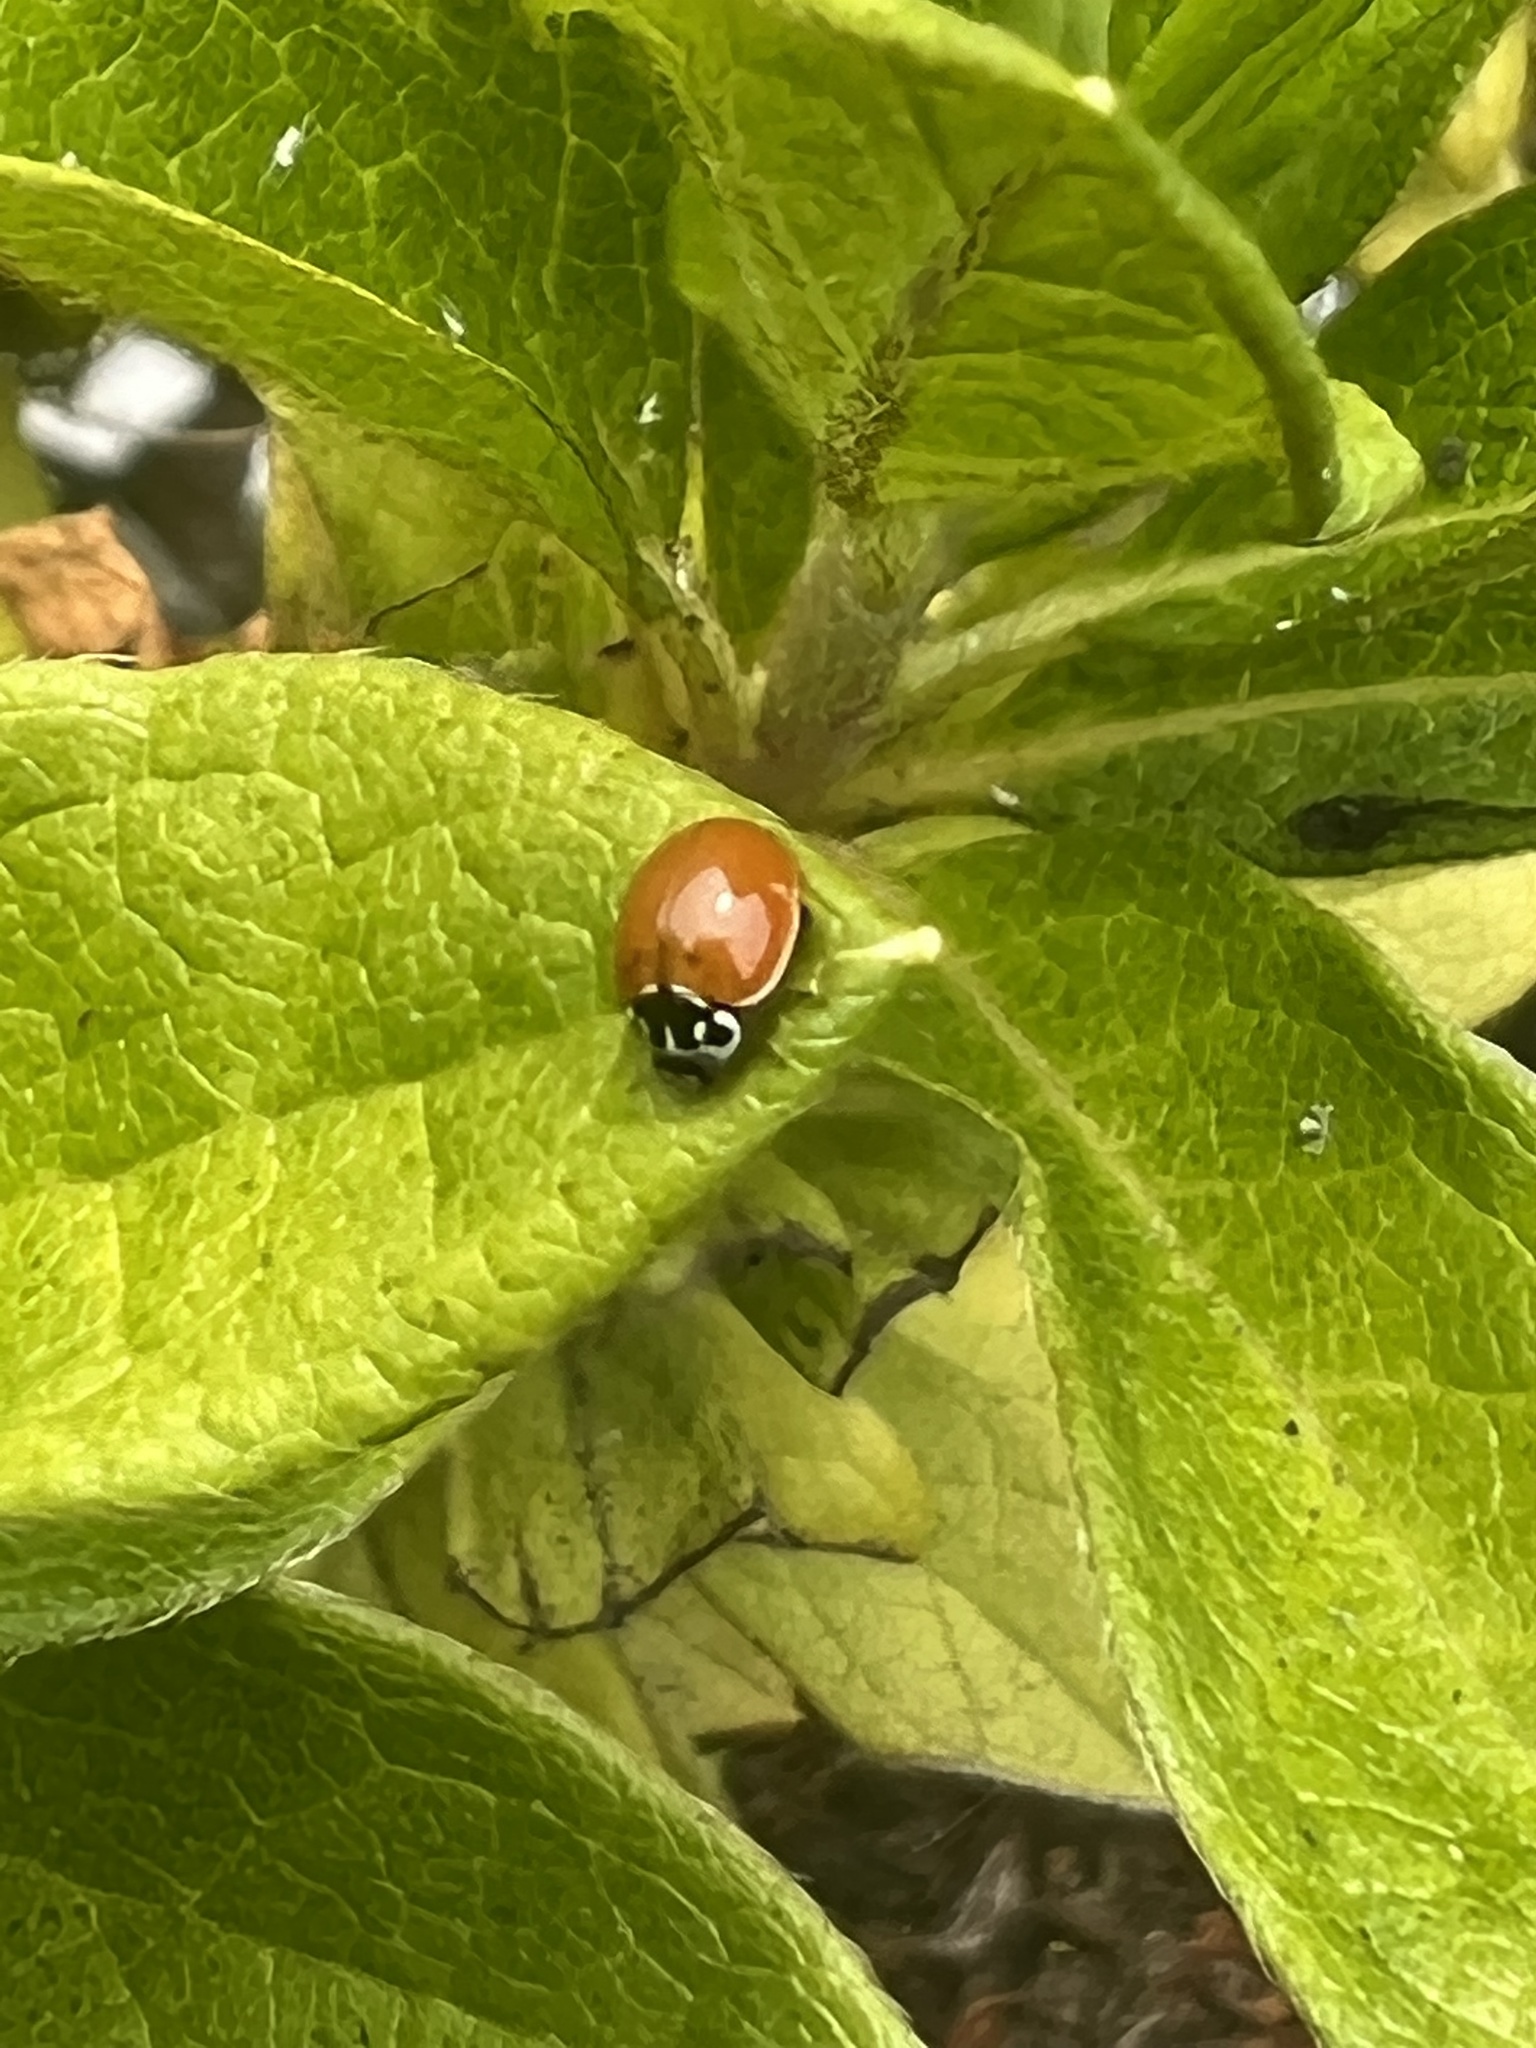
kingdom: Animalia
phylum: Arthropoda
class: Insecta
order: Coleoptera
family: Coccinellidae
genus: Cycloneda
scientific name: Cycloneda polita
